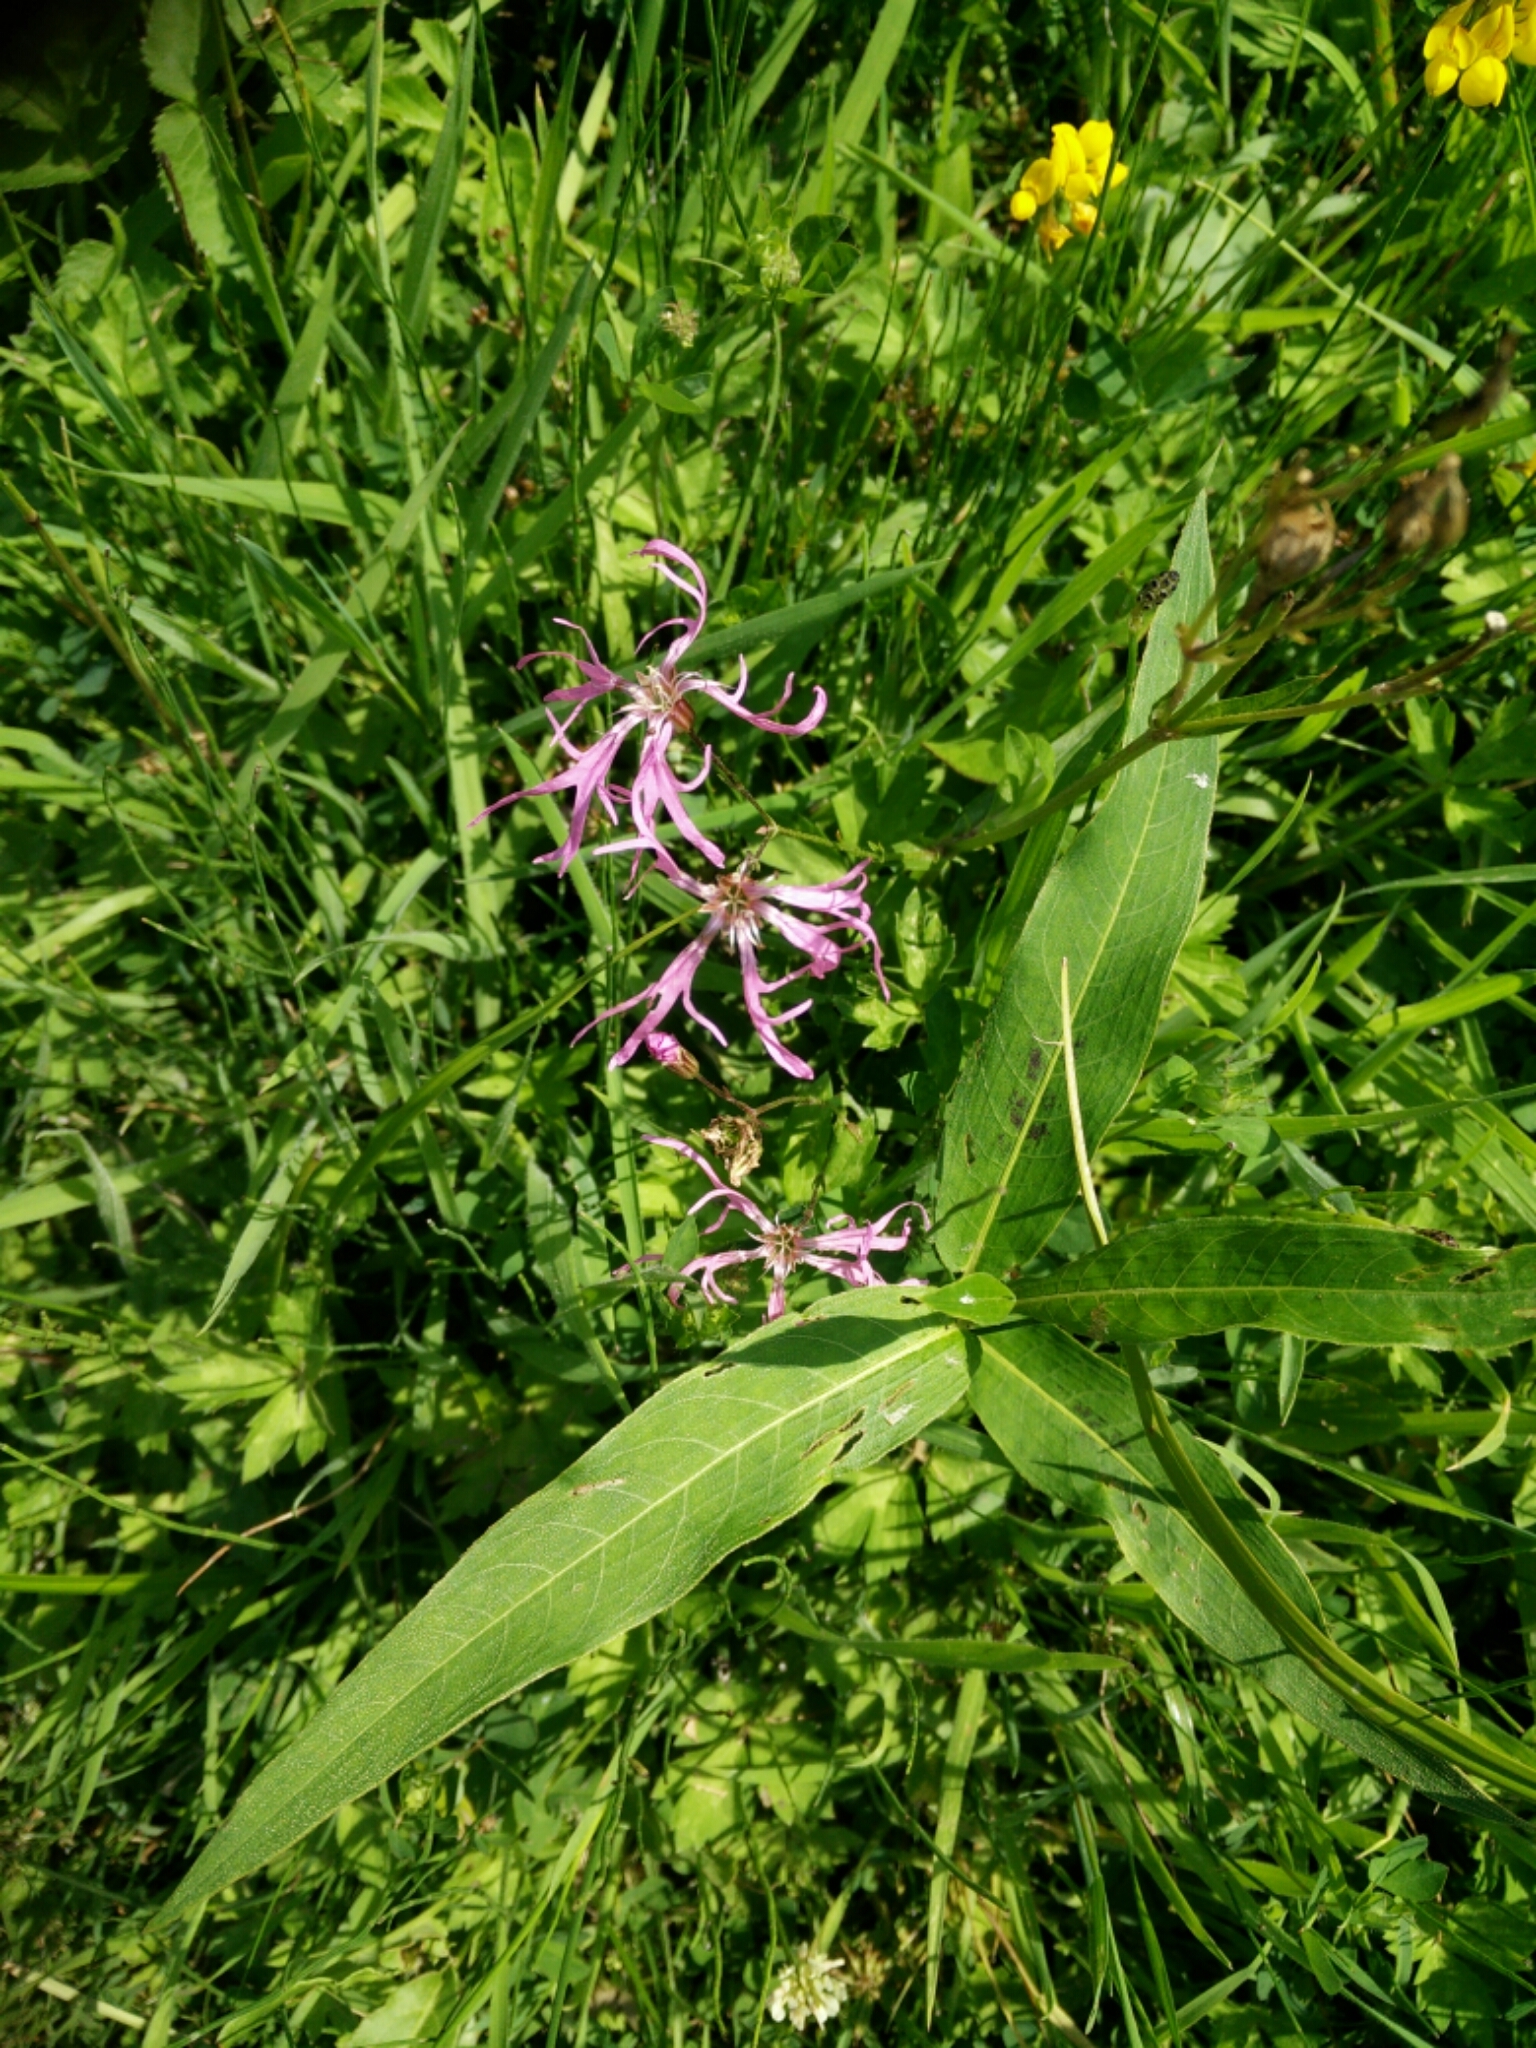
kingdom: Plantae
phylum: Tracheophyta
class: Magnoliopsida
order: Caryophyllales
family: Caryophyllaceae
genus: Silene
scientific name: Silene flos-cuculi
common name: Ragged-robin
